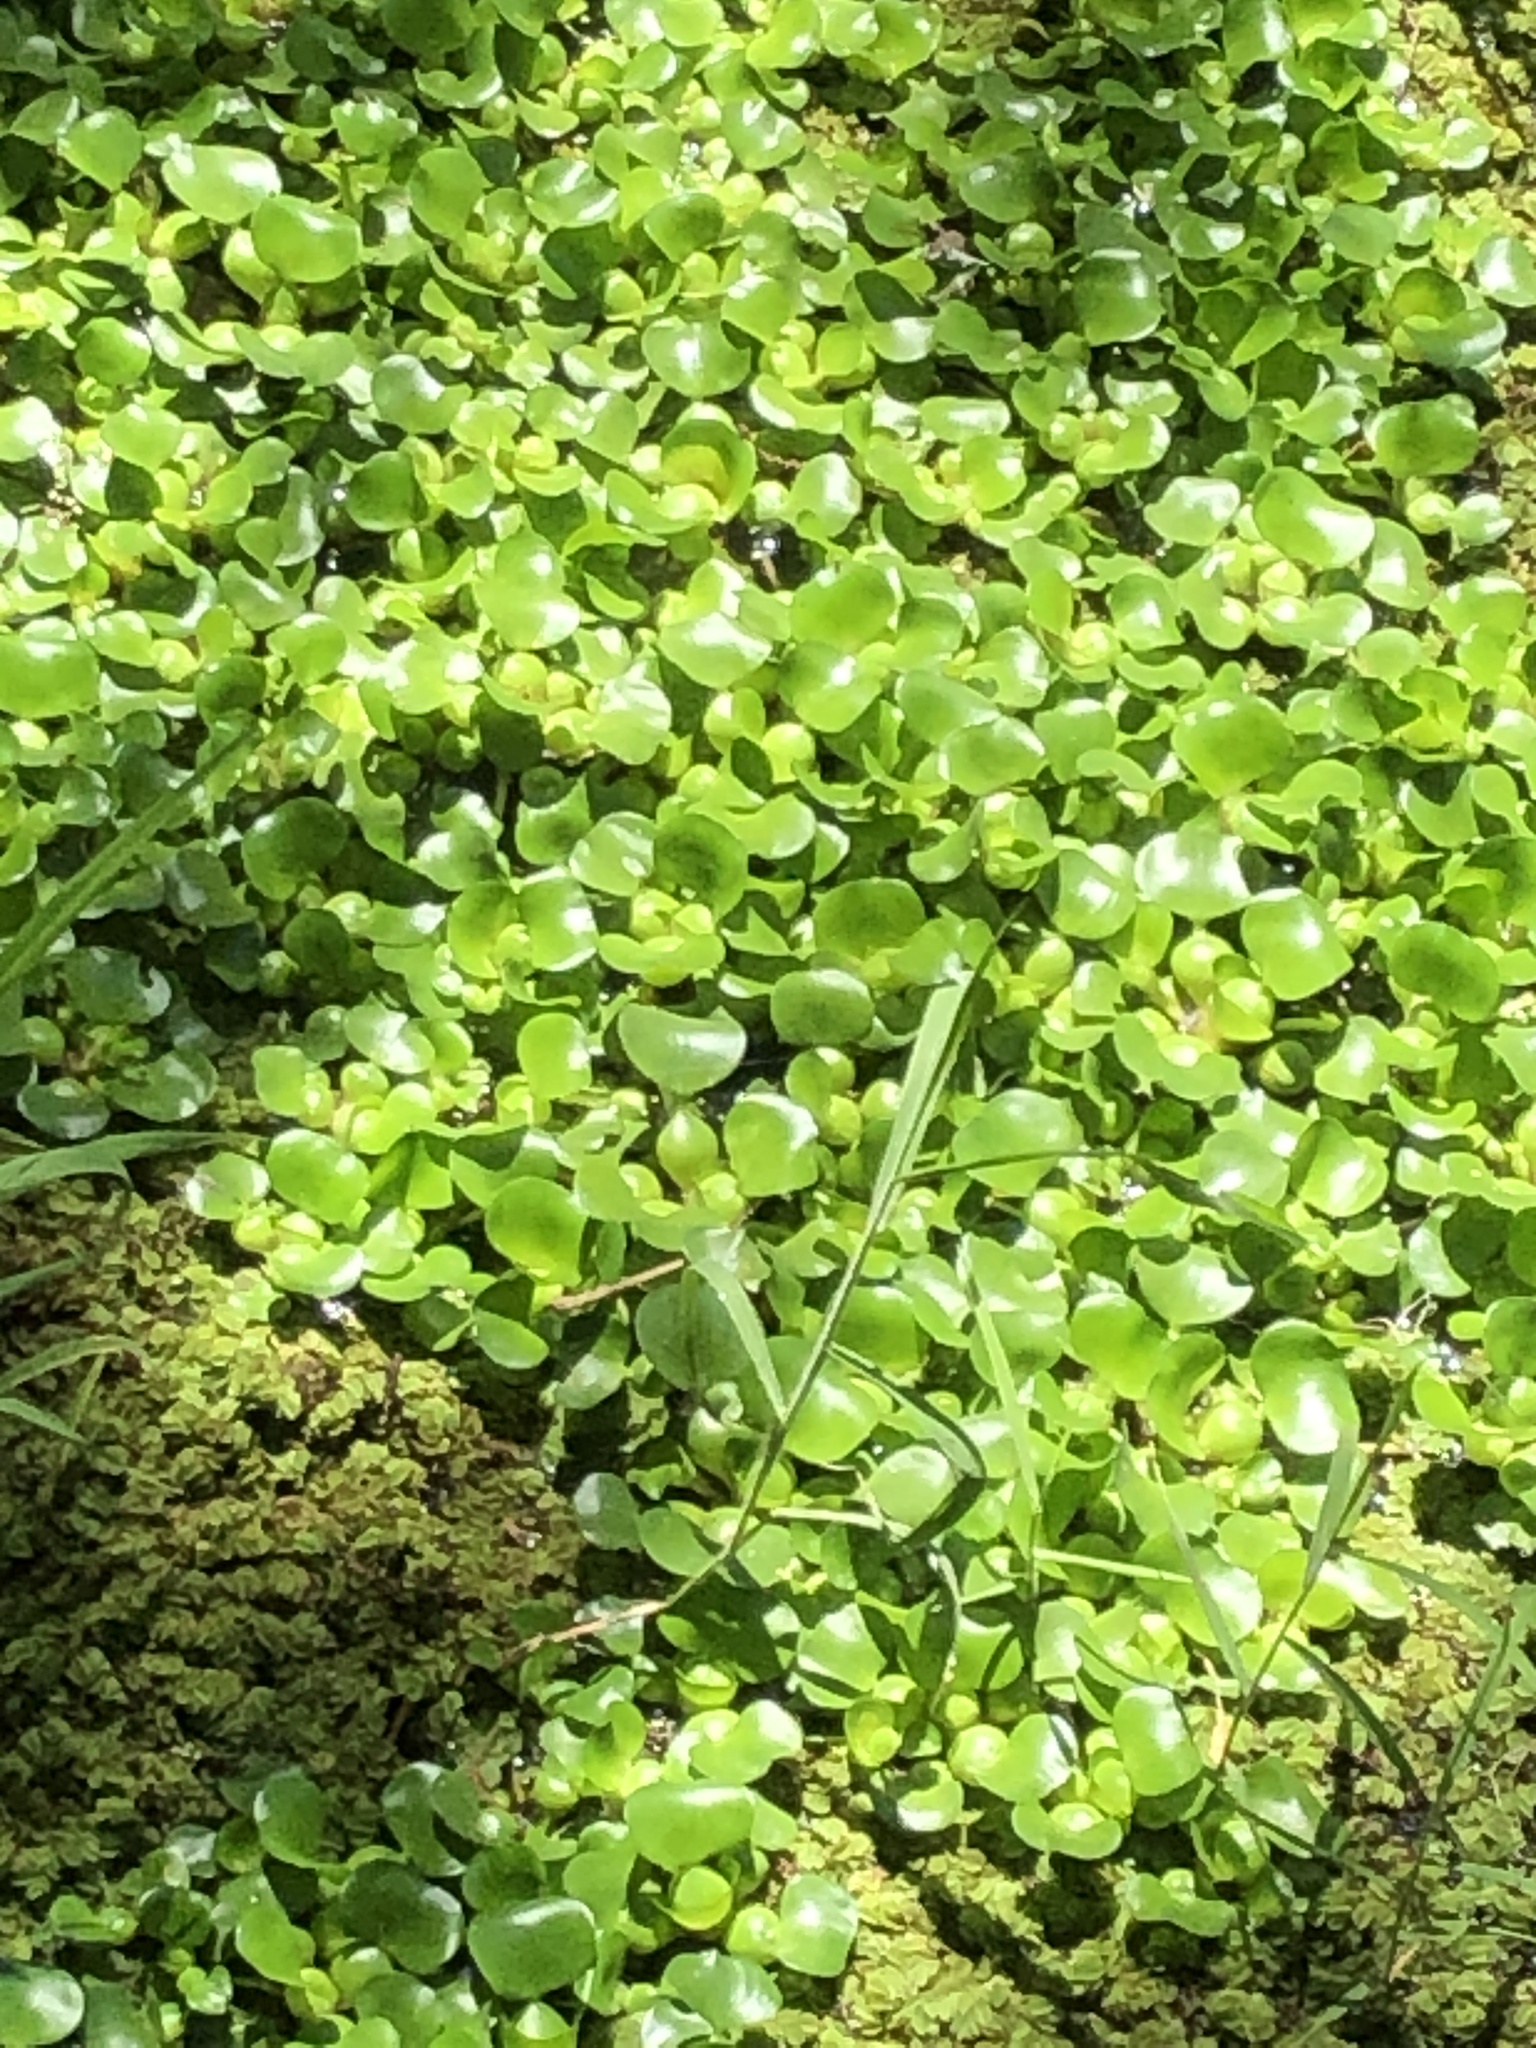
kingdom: Plantae
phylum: Tracheophyta
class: Liliopsida
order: Commelinales
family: Pontederiaceae
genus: Pontederia
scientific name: Pontederia crassipes
